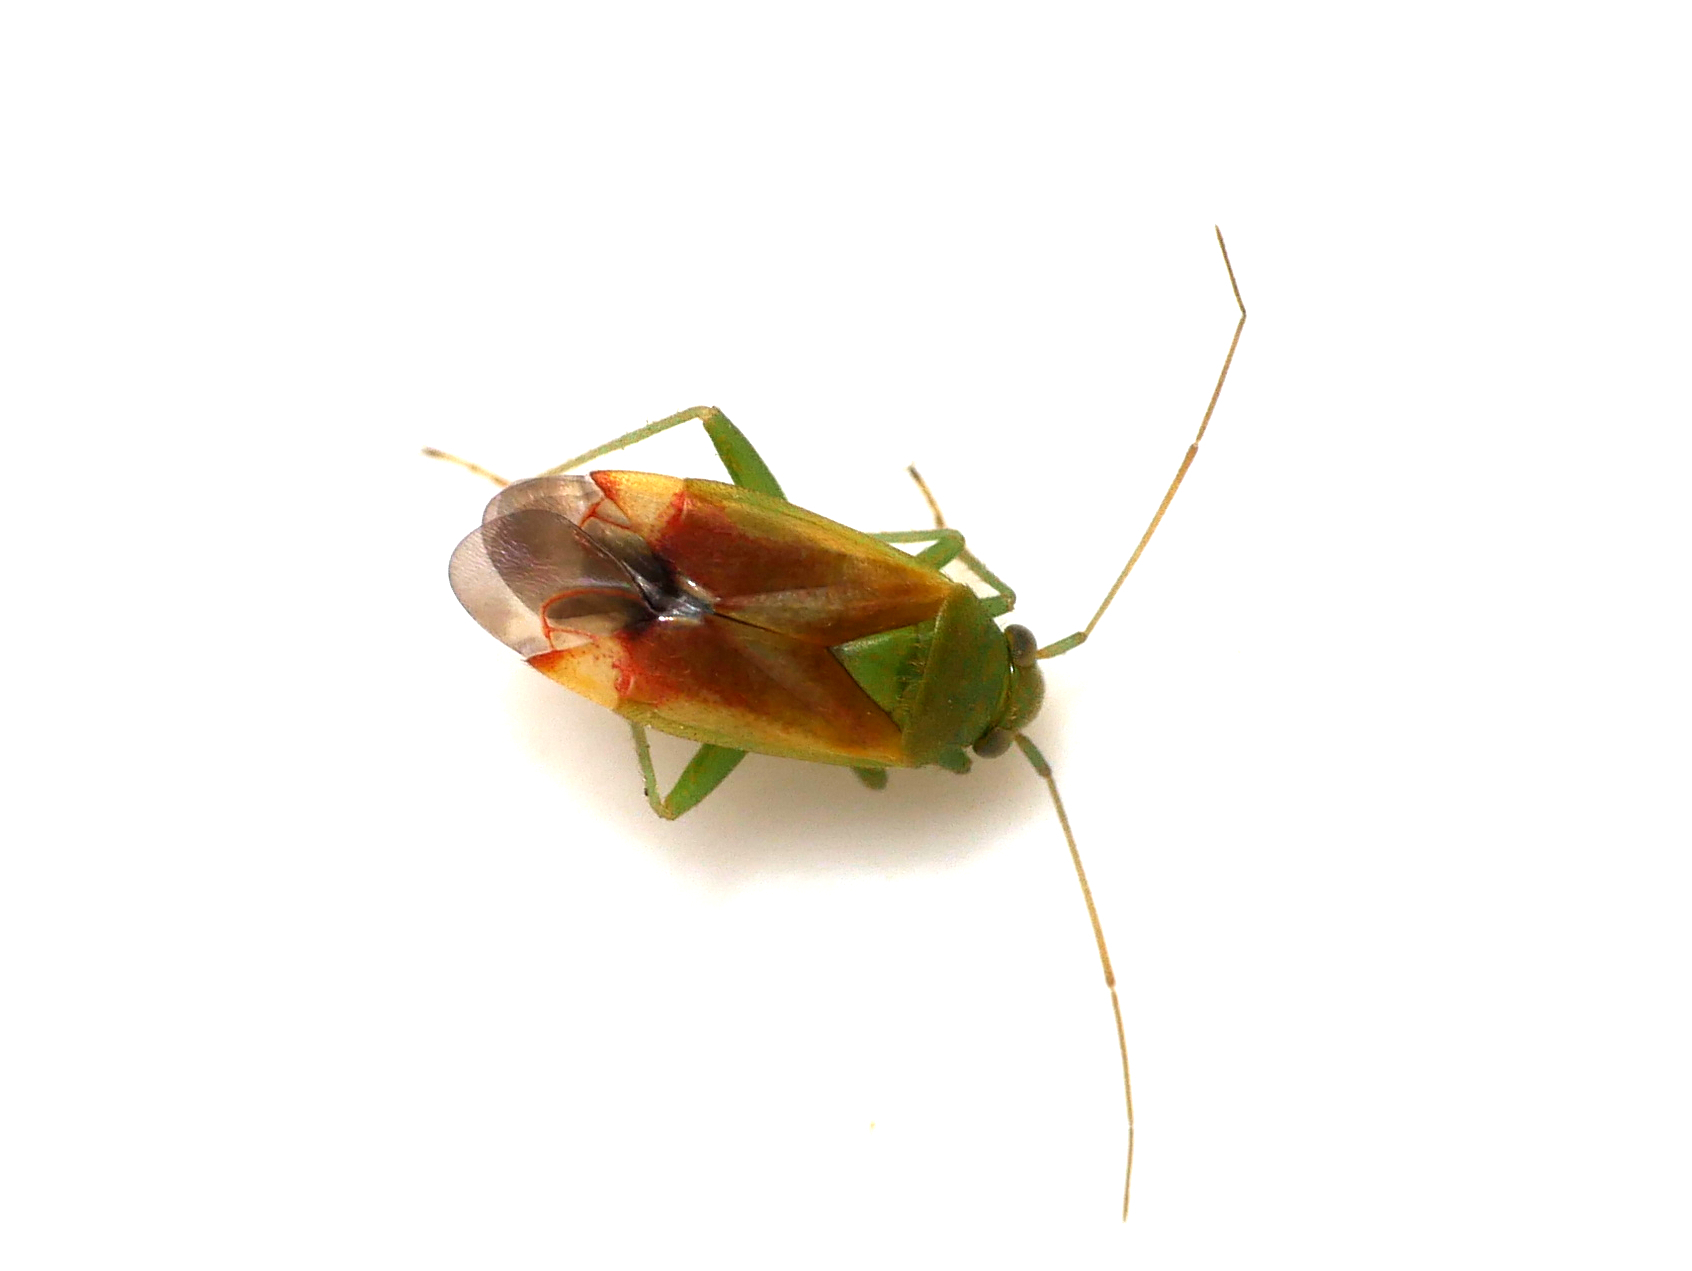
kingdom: Animalia
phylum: Arthropoda
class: Insecta
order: Hemiptera
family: Miridae
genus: Dichrooscytus
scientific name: Dichrooscytus gustavi
